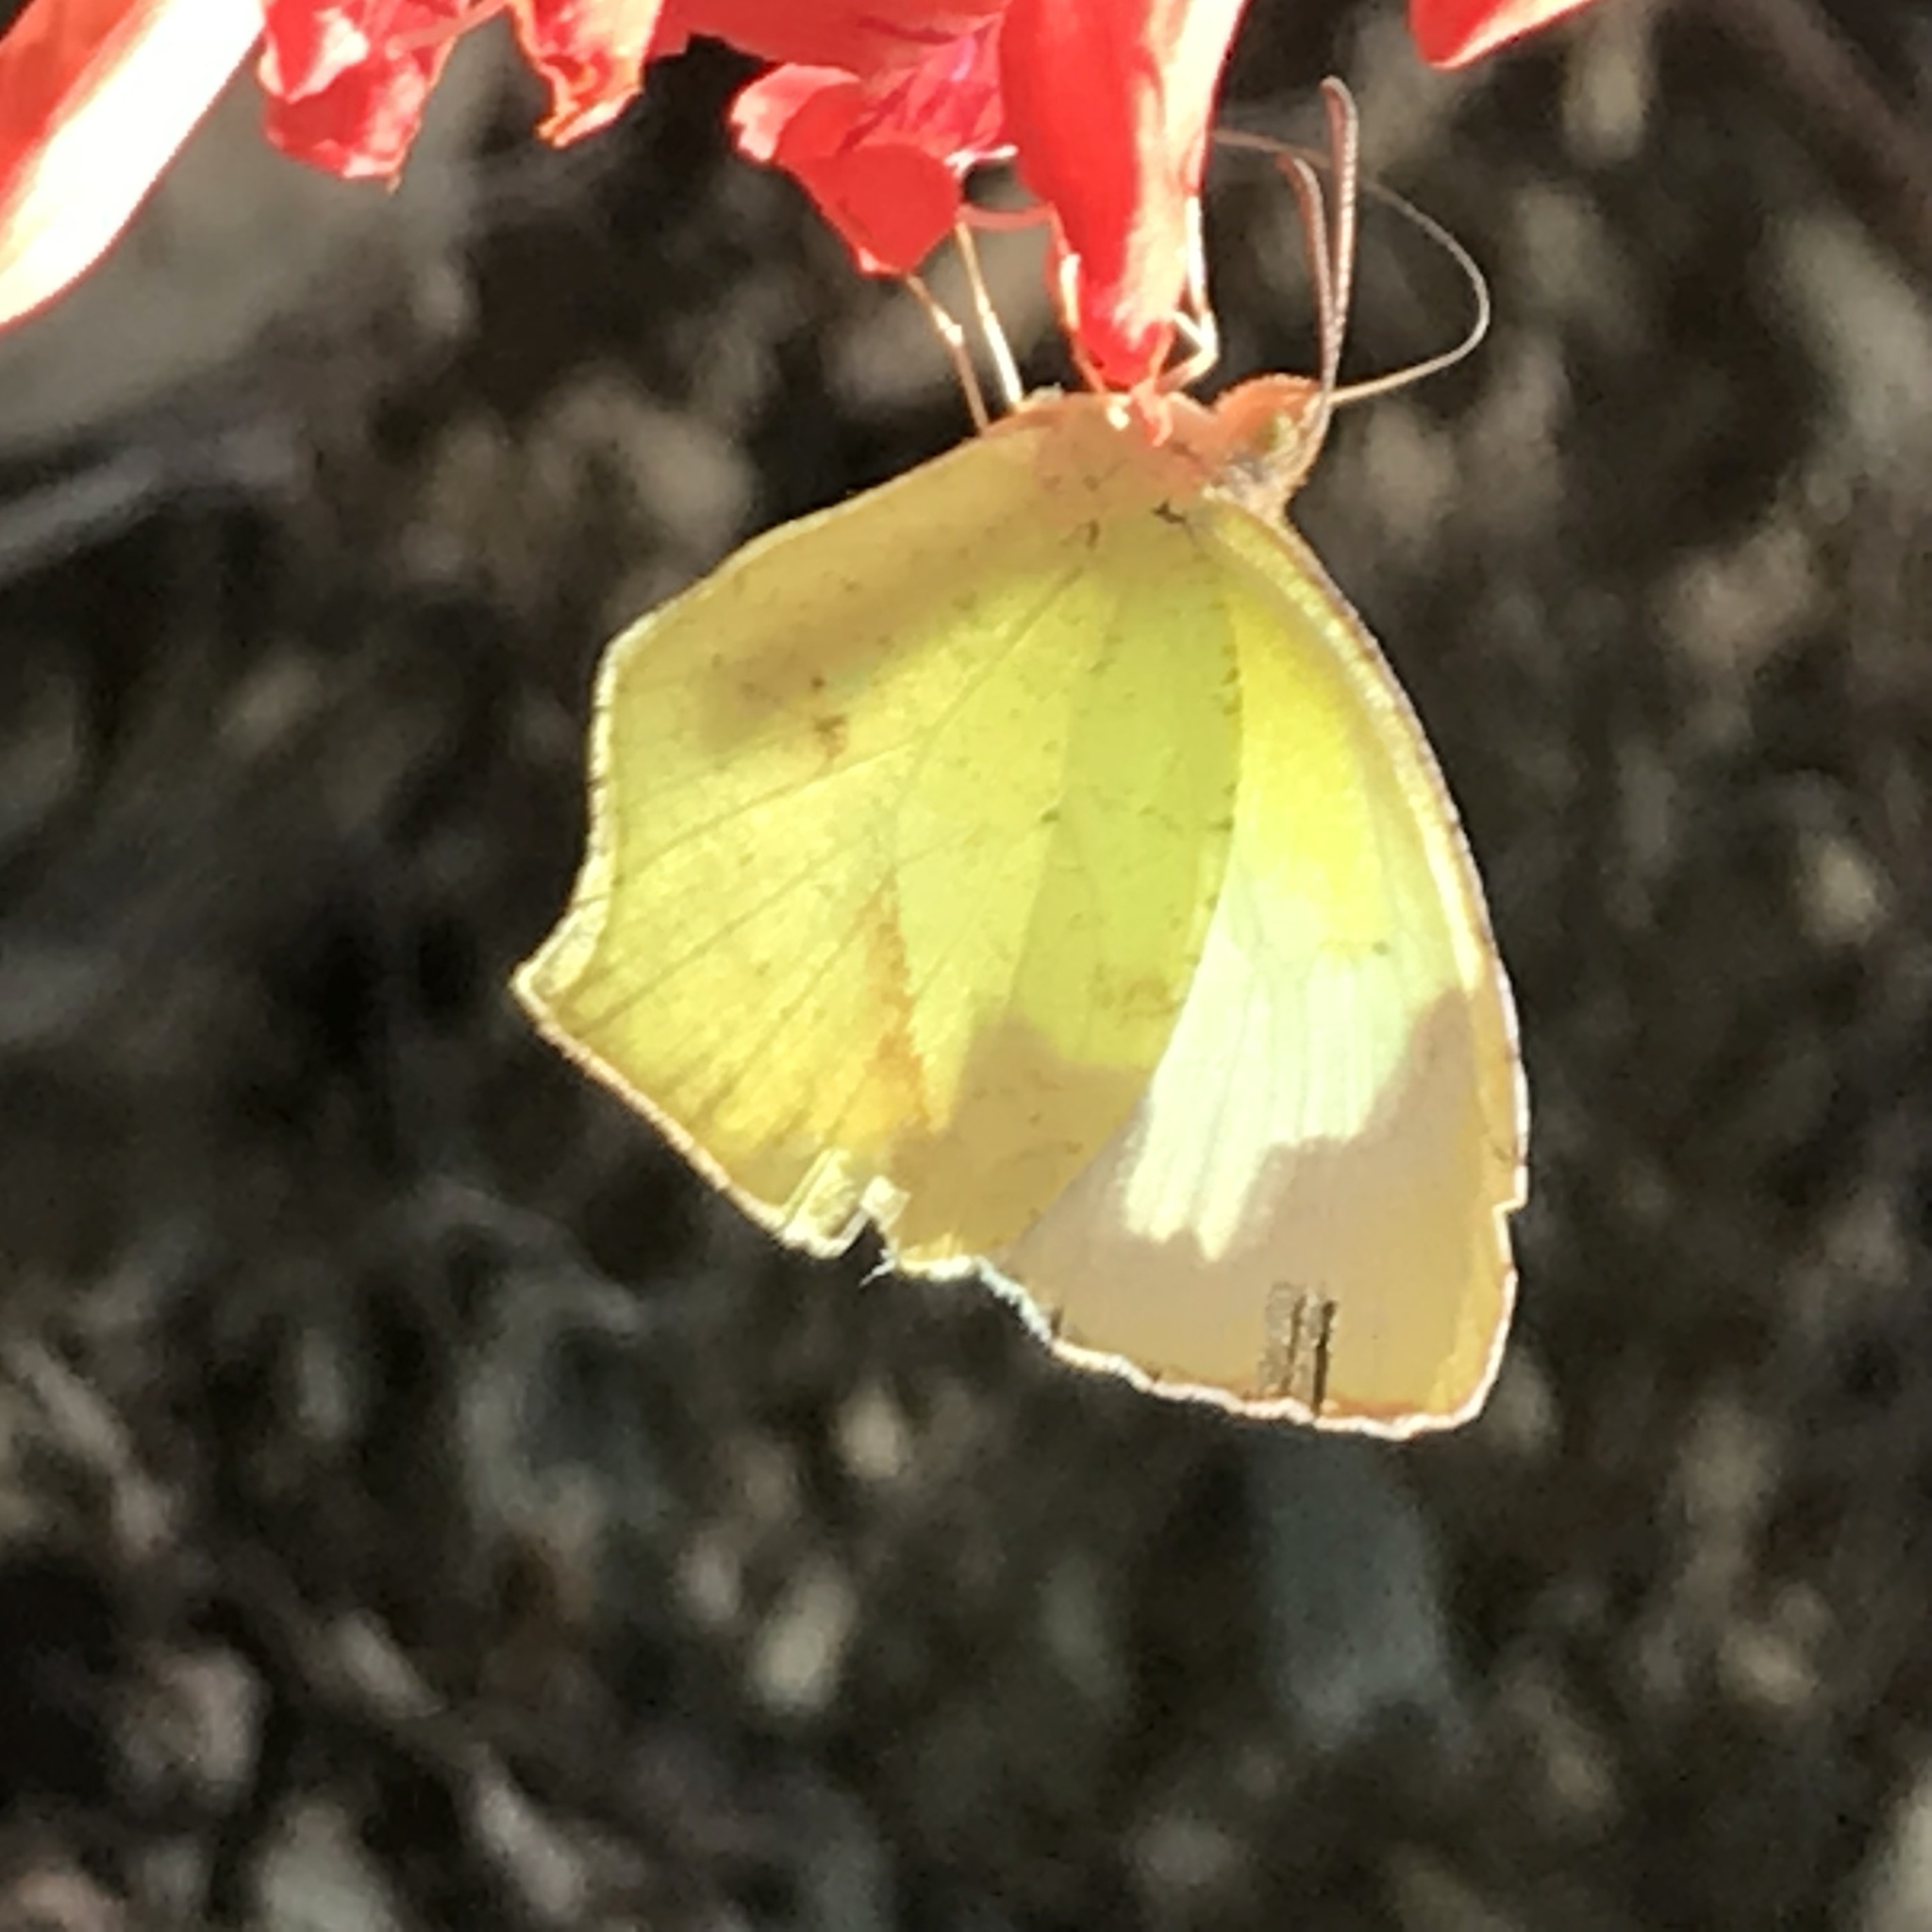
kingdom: Animalia
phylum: Arthropoda
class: Insecta
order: Lepidoptera
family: Pieridae
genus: Abaeis
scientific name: Abaeis mexicana
